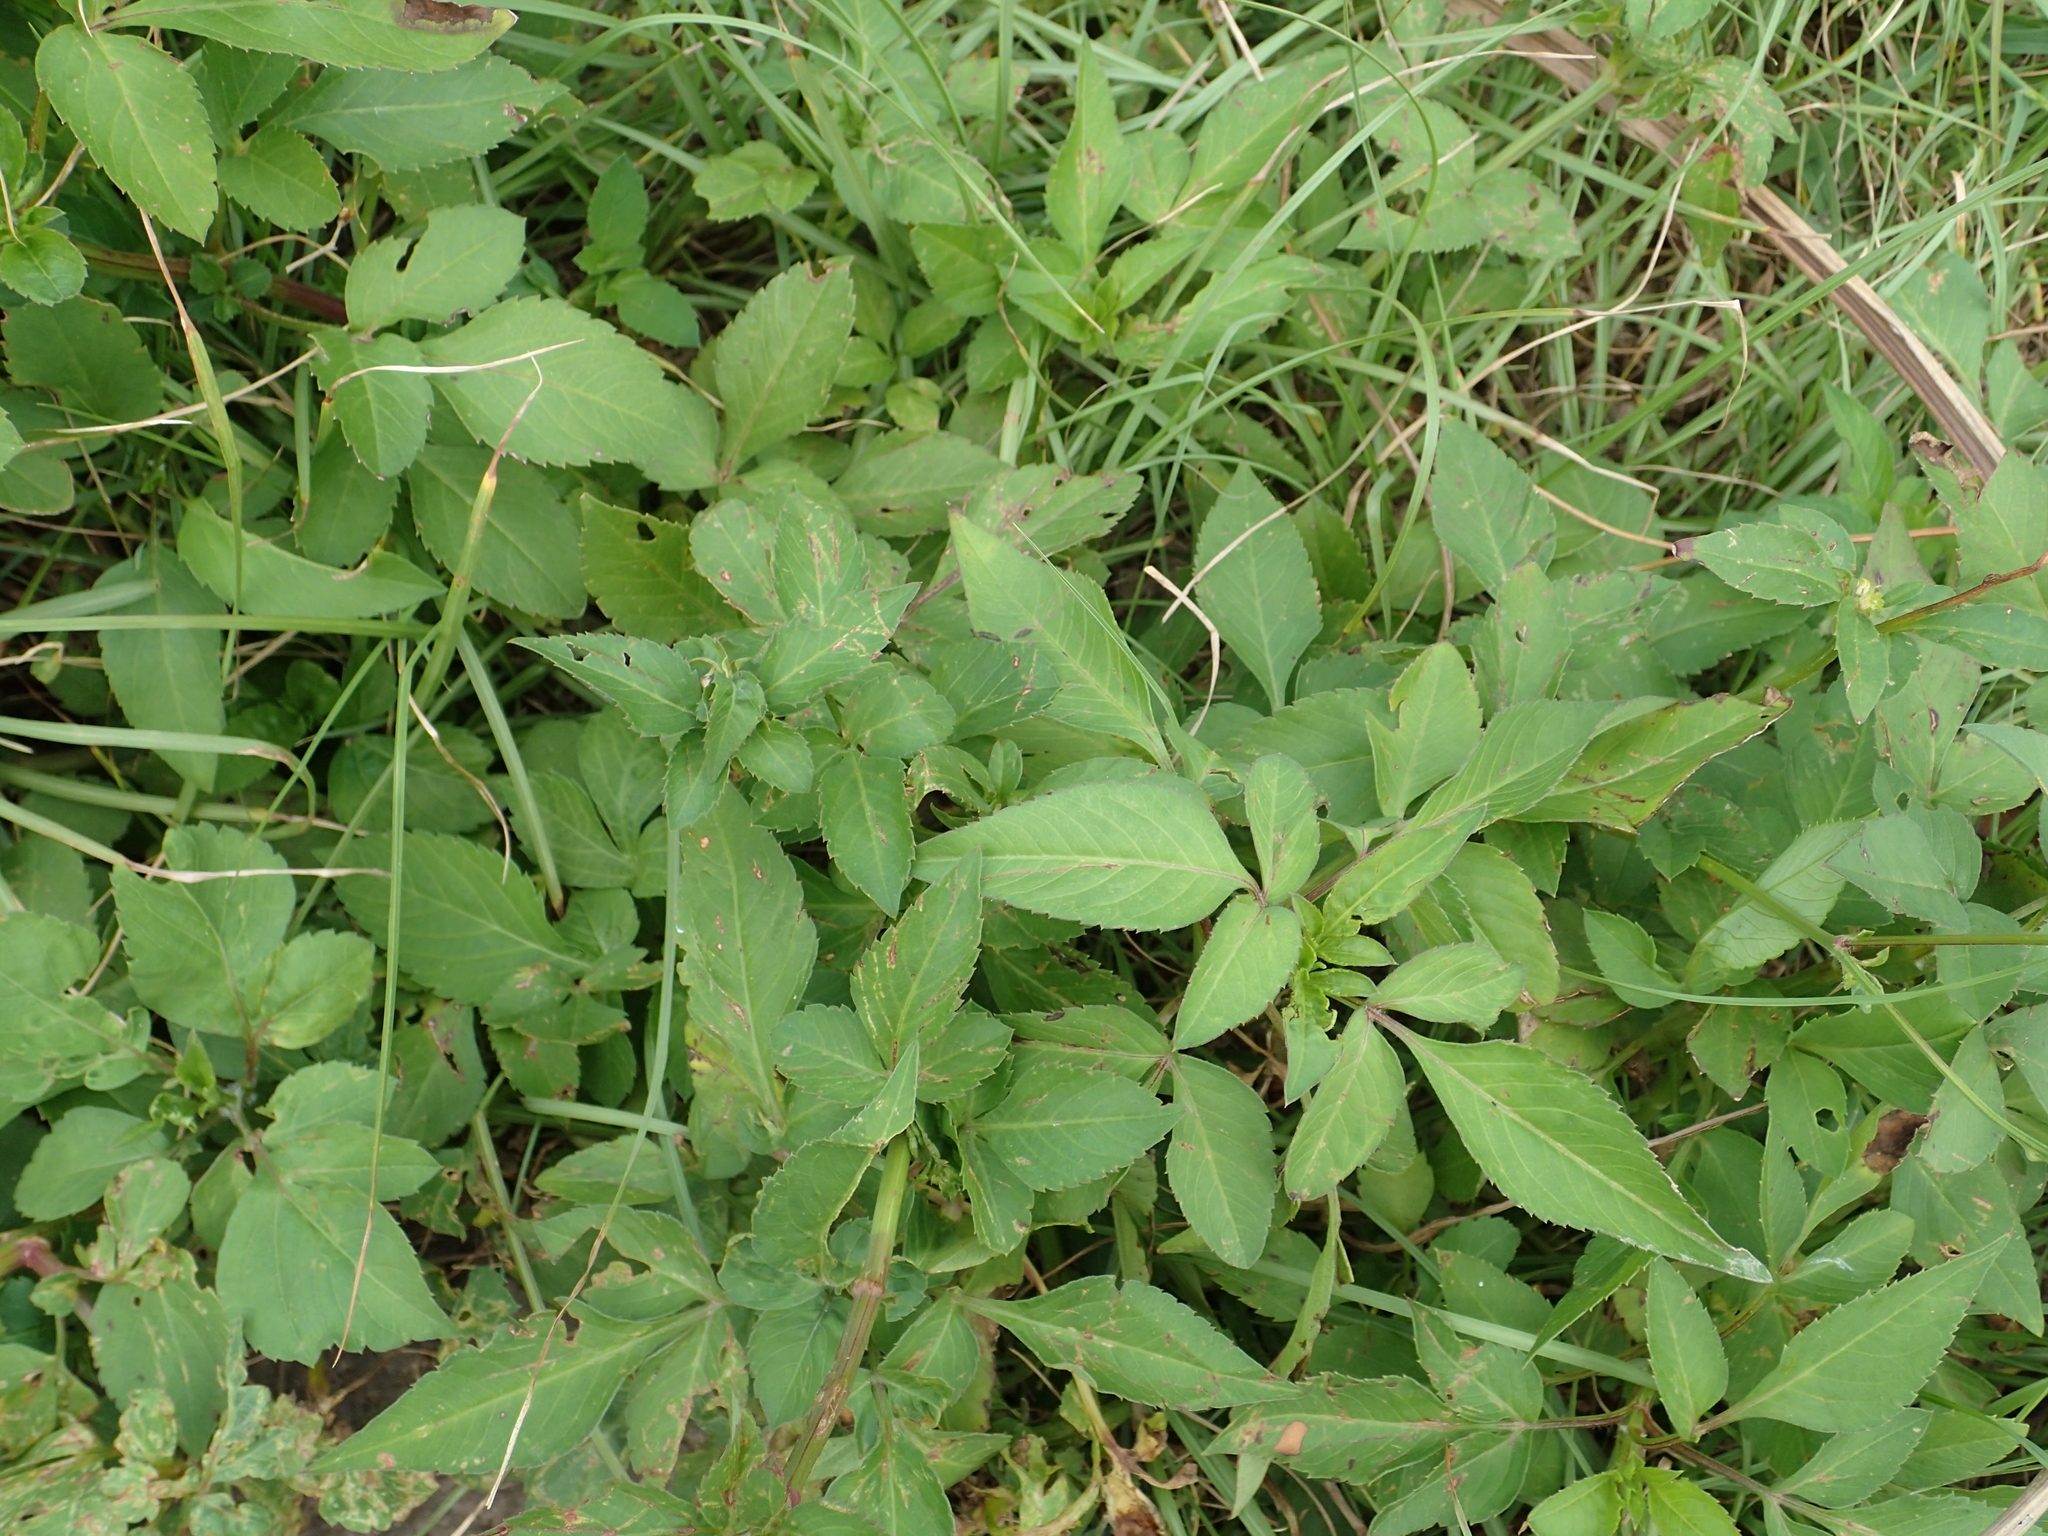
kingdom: Plantae
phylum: Tracheophyta
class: Magnoliopsida
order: Asterales
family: Asteraceae
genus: Bidens
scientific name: Bidens alba
